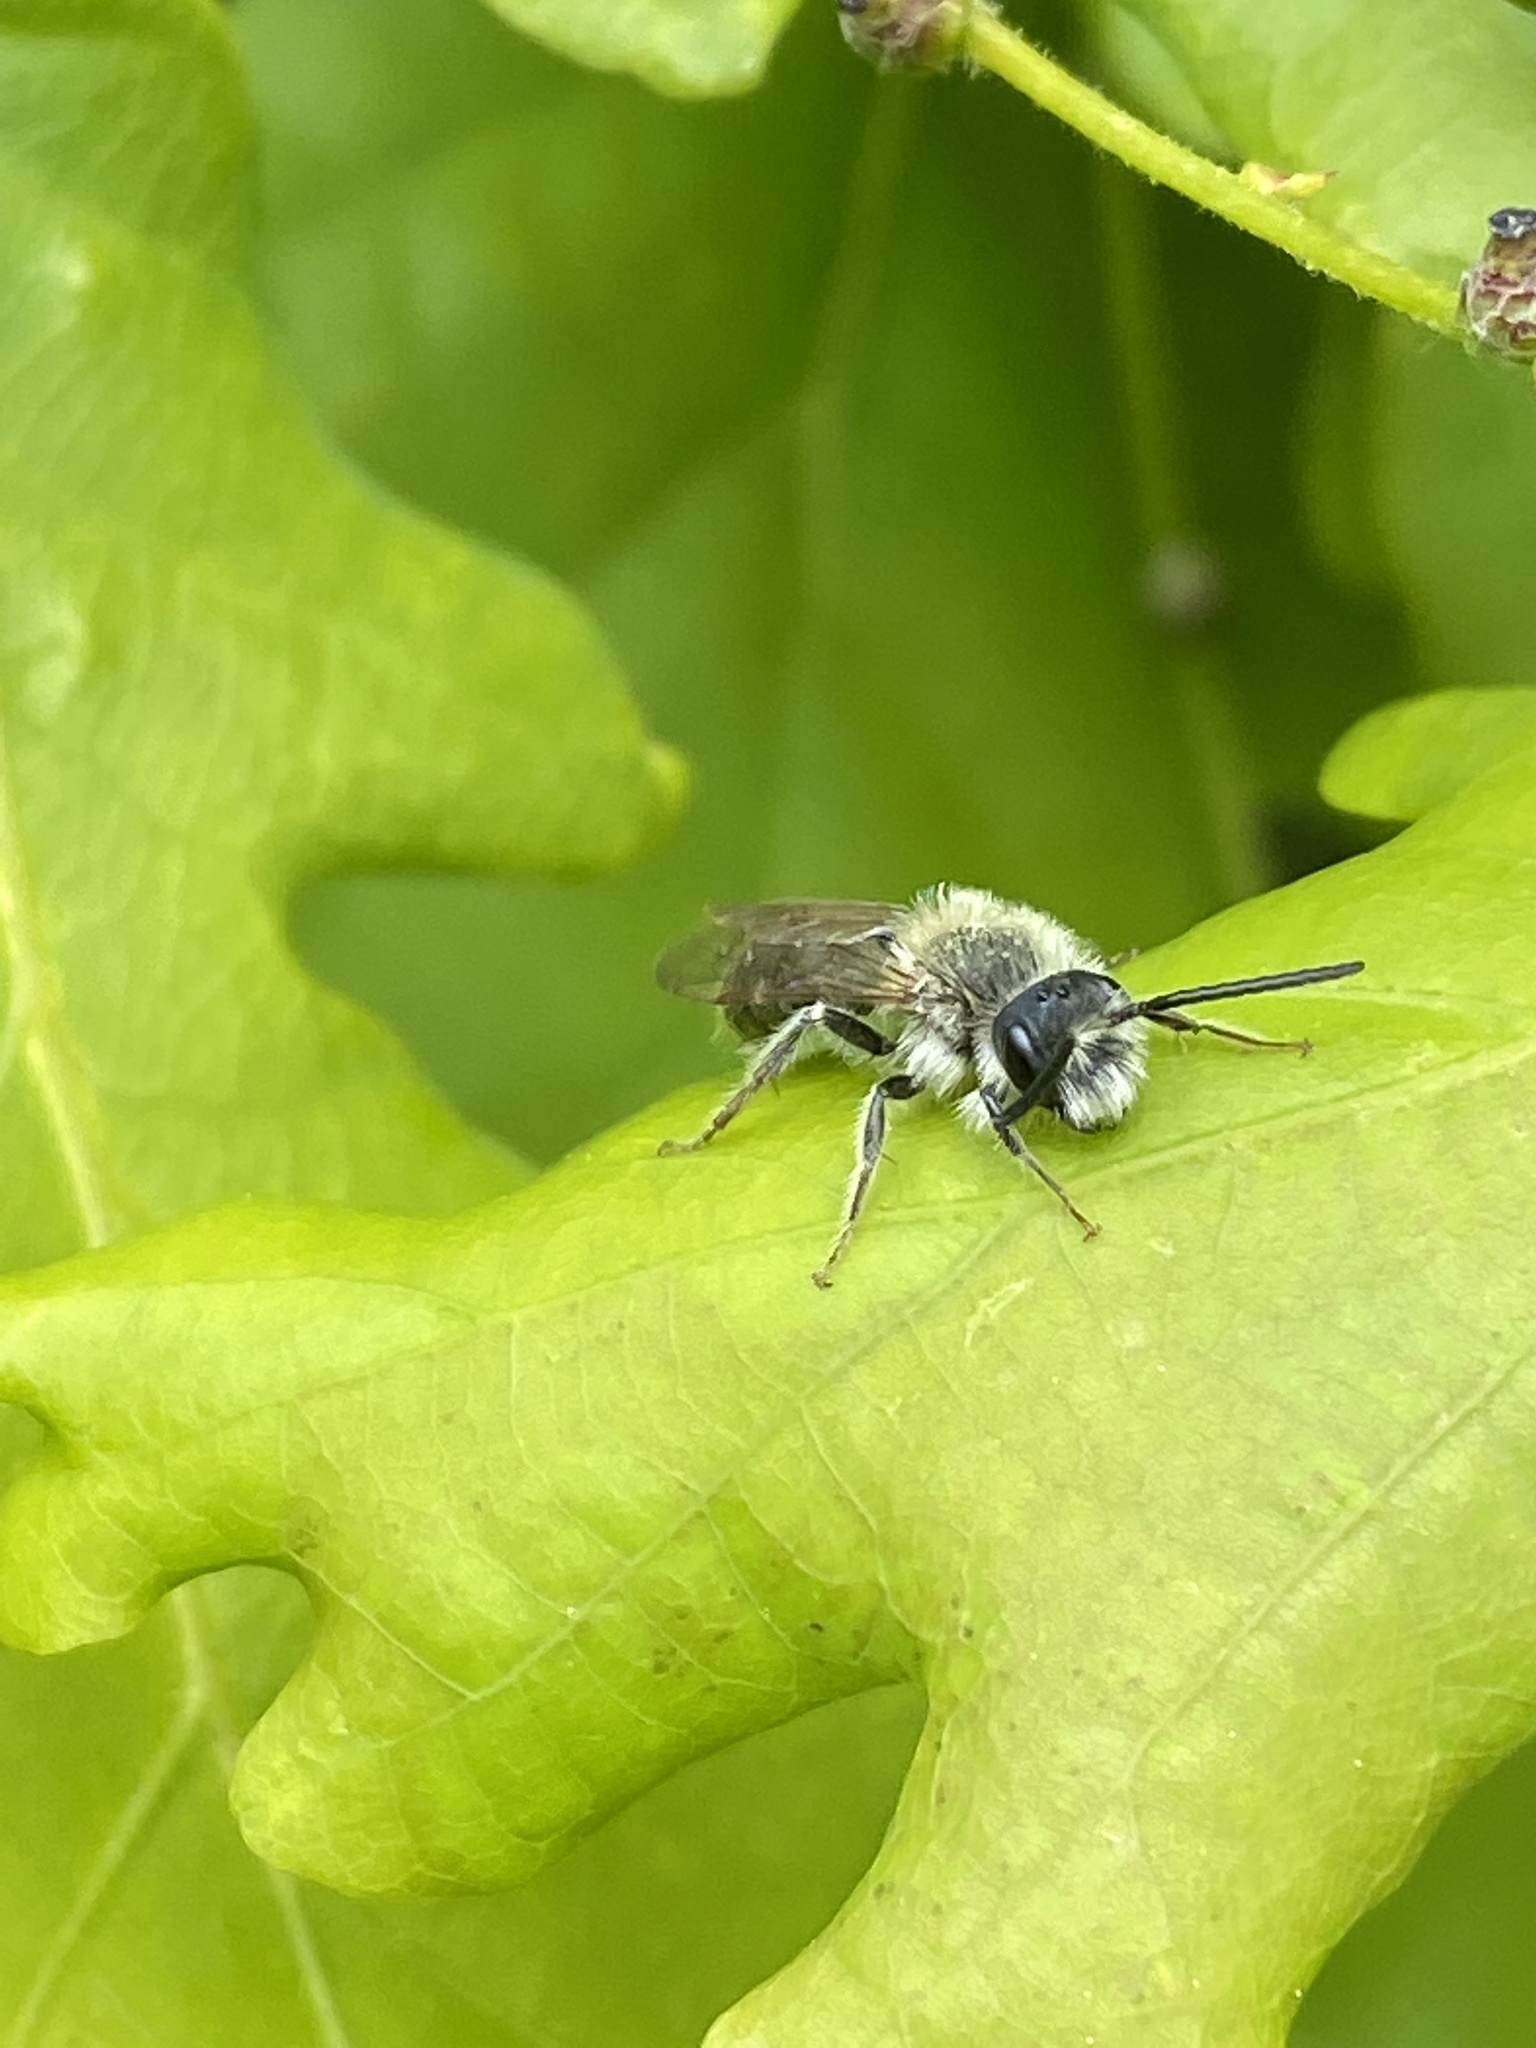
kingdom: Animalia
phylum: Arthropoda
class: Insecta
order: Hymenoptera
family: Andrenidae
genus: Andrena
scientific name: Andrena cineraria
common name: Ashy mining bee
